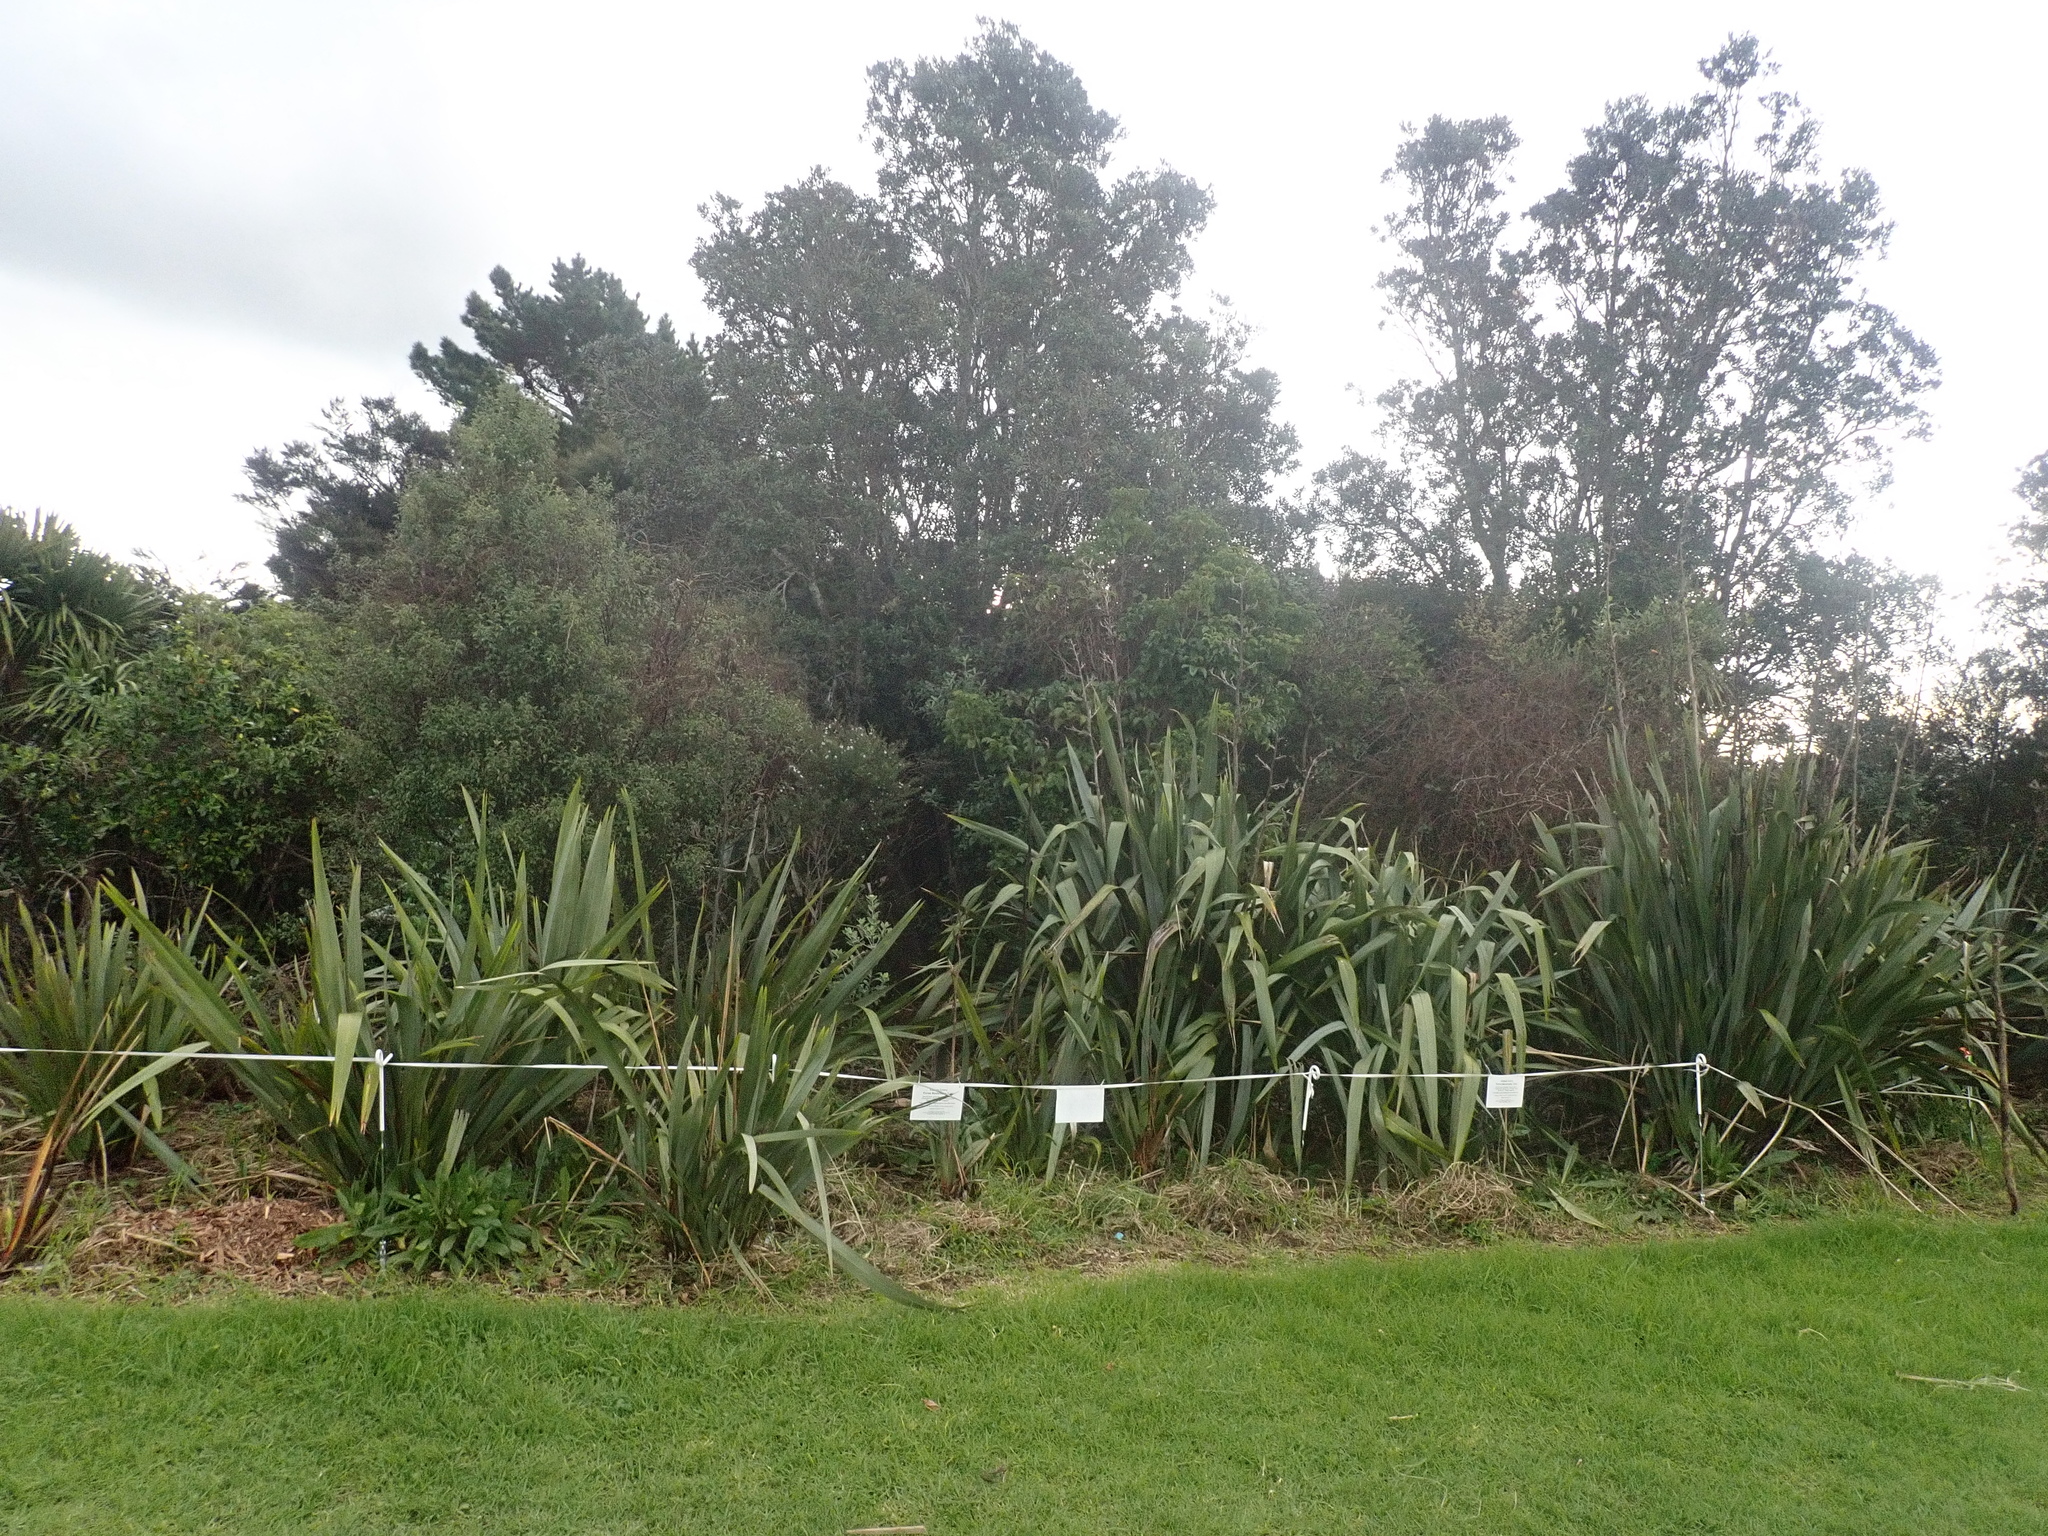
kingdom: Plantae
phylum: Tracheophyta
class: Magnoliopsida
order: Myrtales
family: Myrtaceae
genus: Metrosideros
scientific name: Metrosideros excelsa
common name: New zealand christmastree
